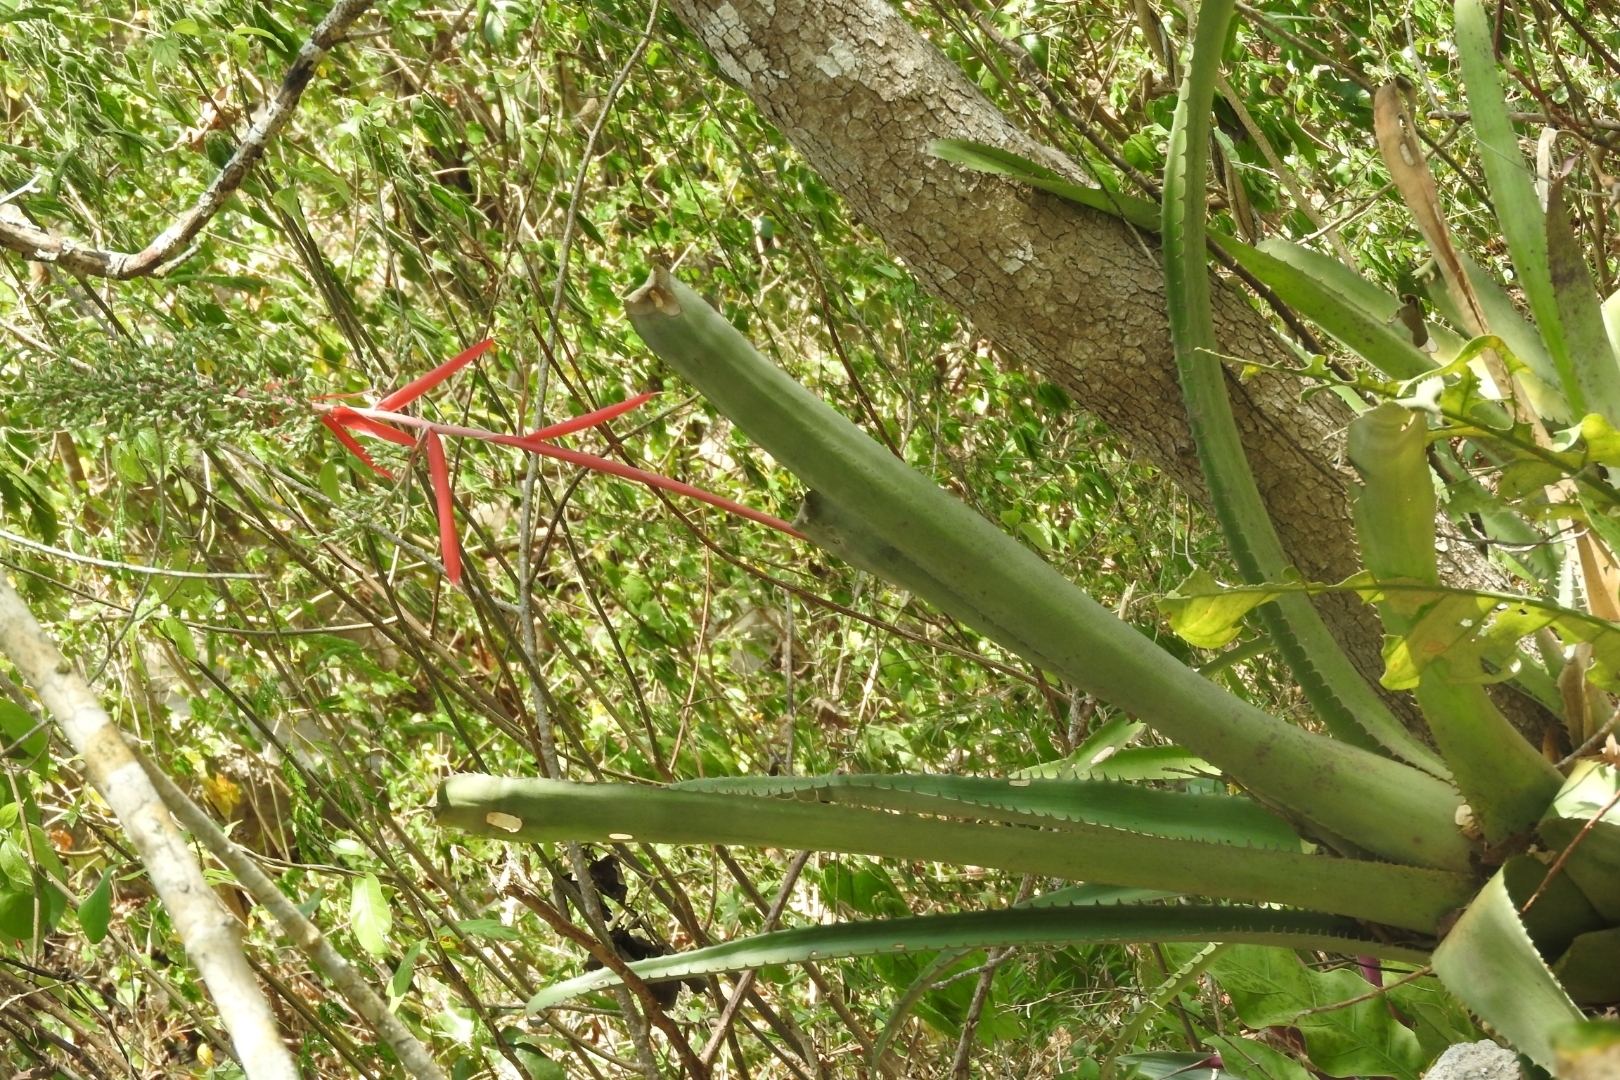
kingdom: Plantae
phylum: Tracheophyta
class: Liliopsida
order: Poales
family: Bromeliaceae
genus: Aechmea
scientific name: Aechmea bracteata
